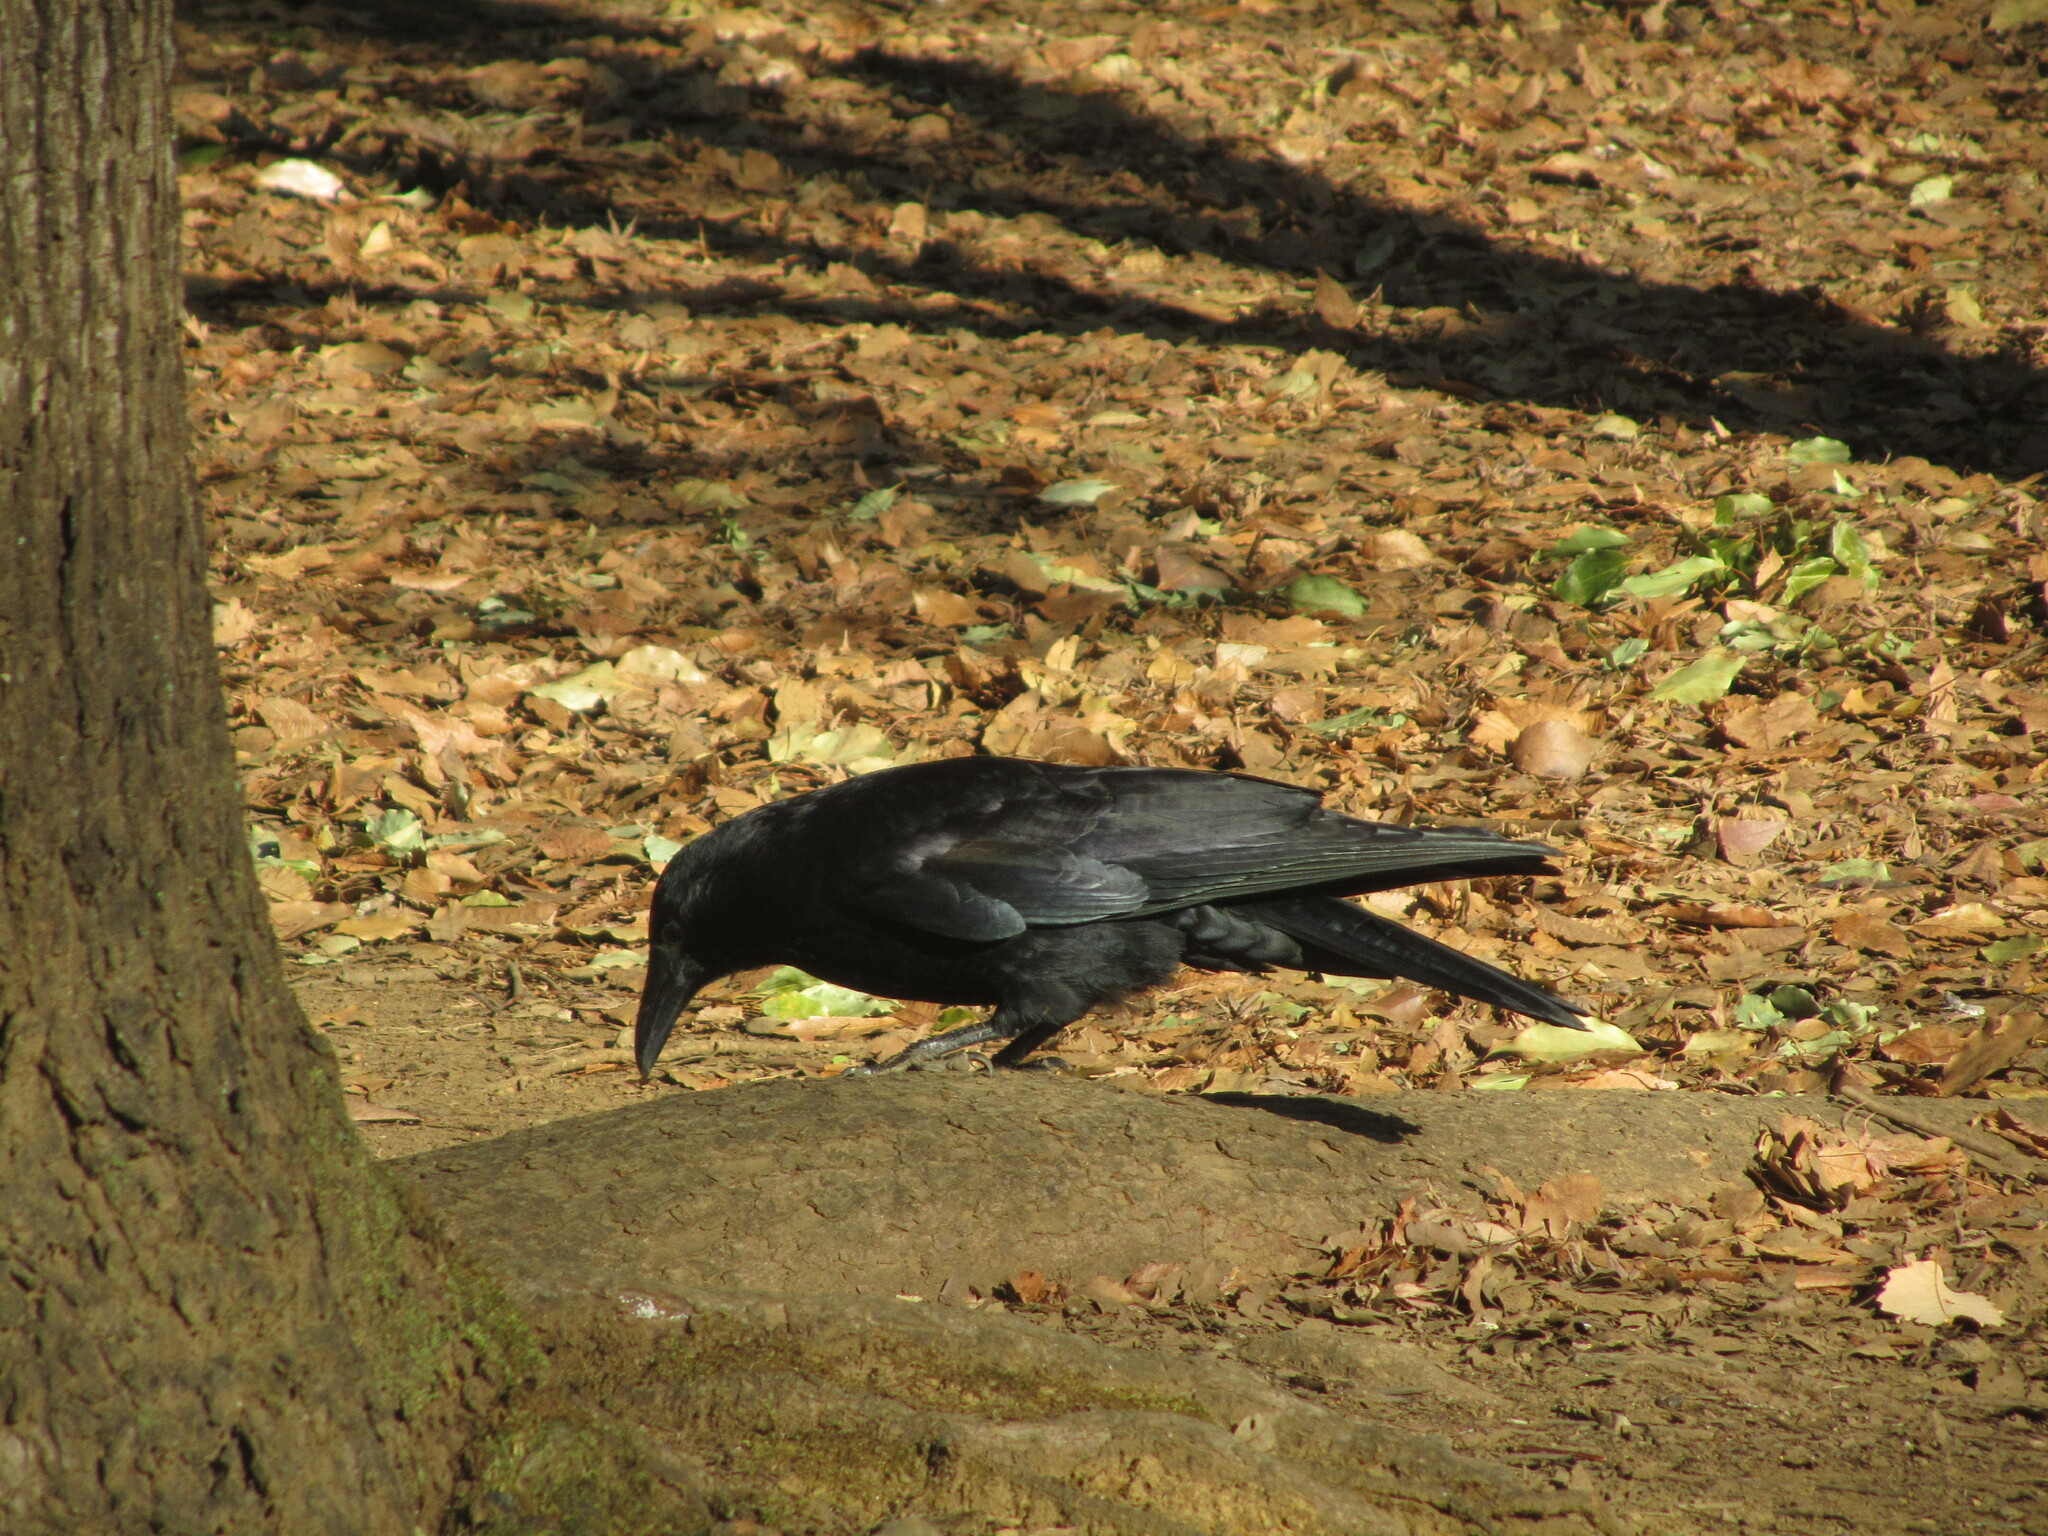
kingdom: Animalia
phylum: Chordata
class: Aves
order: Passeriformes
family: Corvidae
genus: Corvus
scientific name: Corvus corone
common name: Carrion crow
